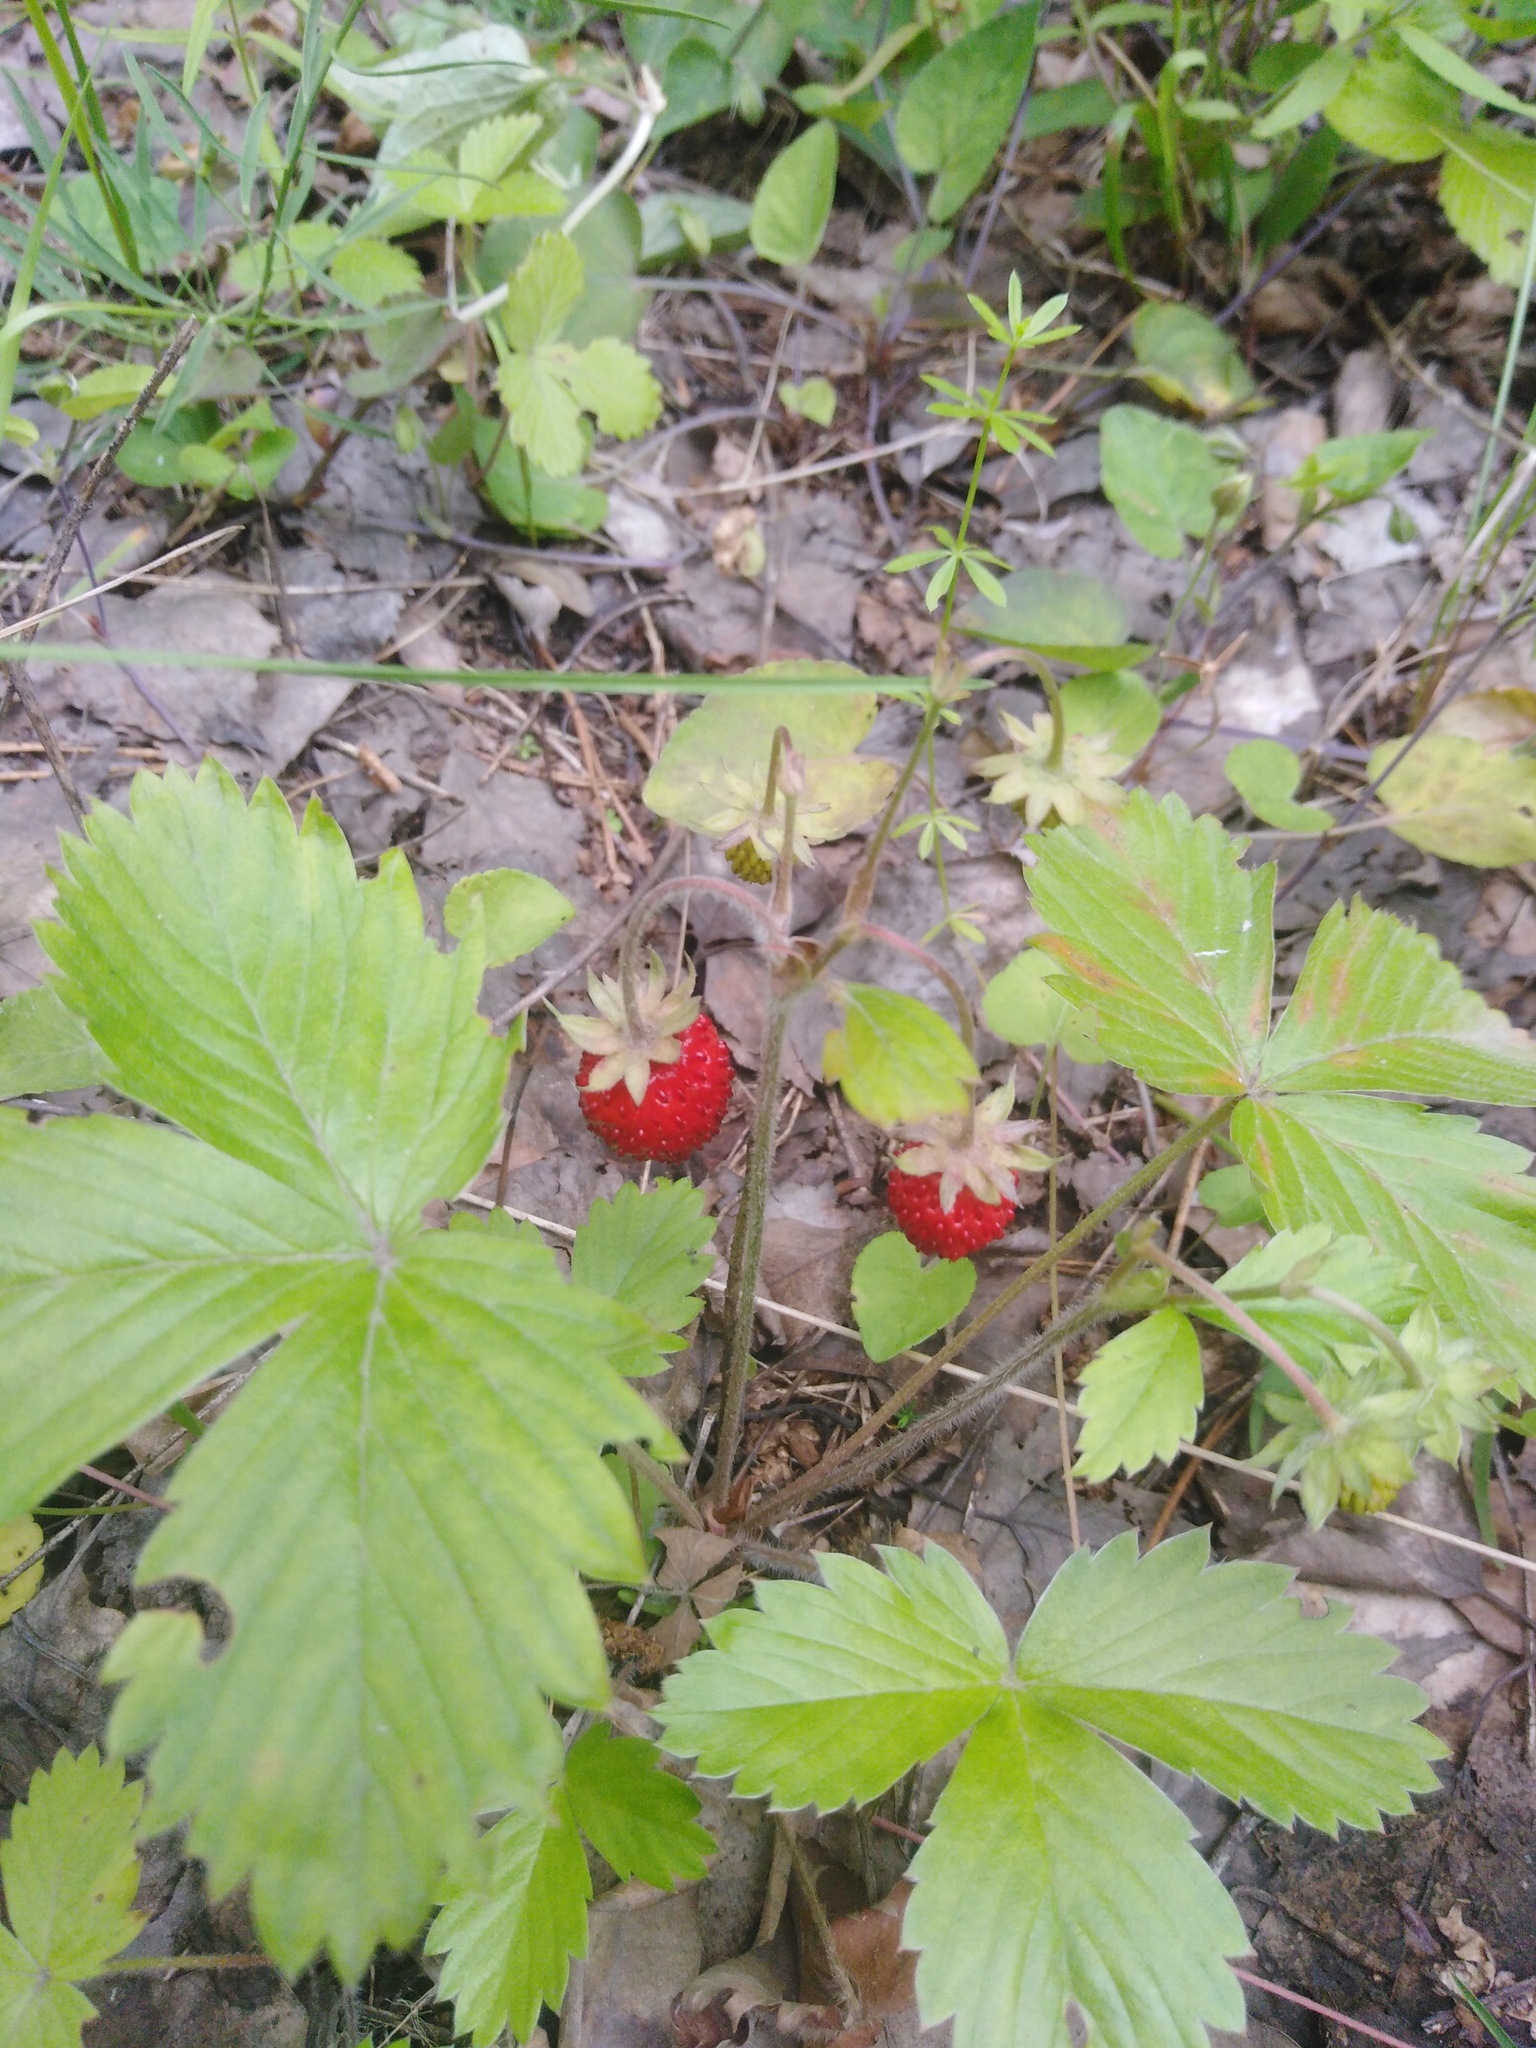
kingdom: Plantae
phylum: Tracheophyta
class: Magnoliopsida
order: Rosales
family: Rosaceae
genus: Fragaria
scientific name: Fragaria vesca
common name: Wild strawberry
